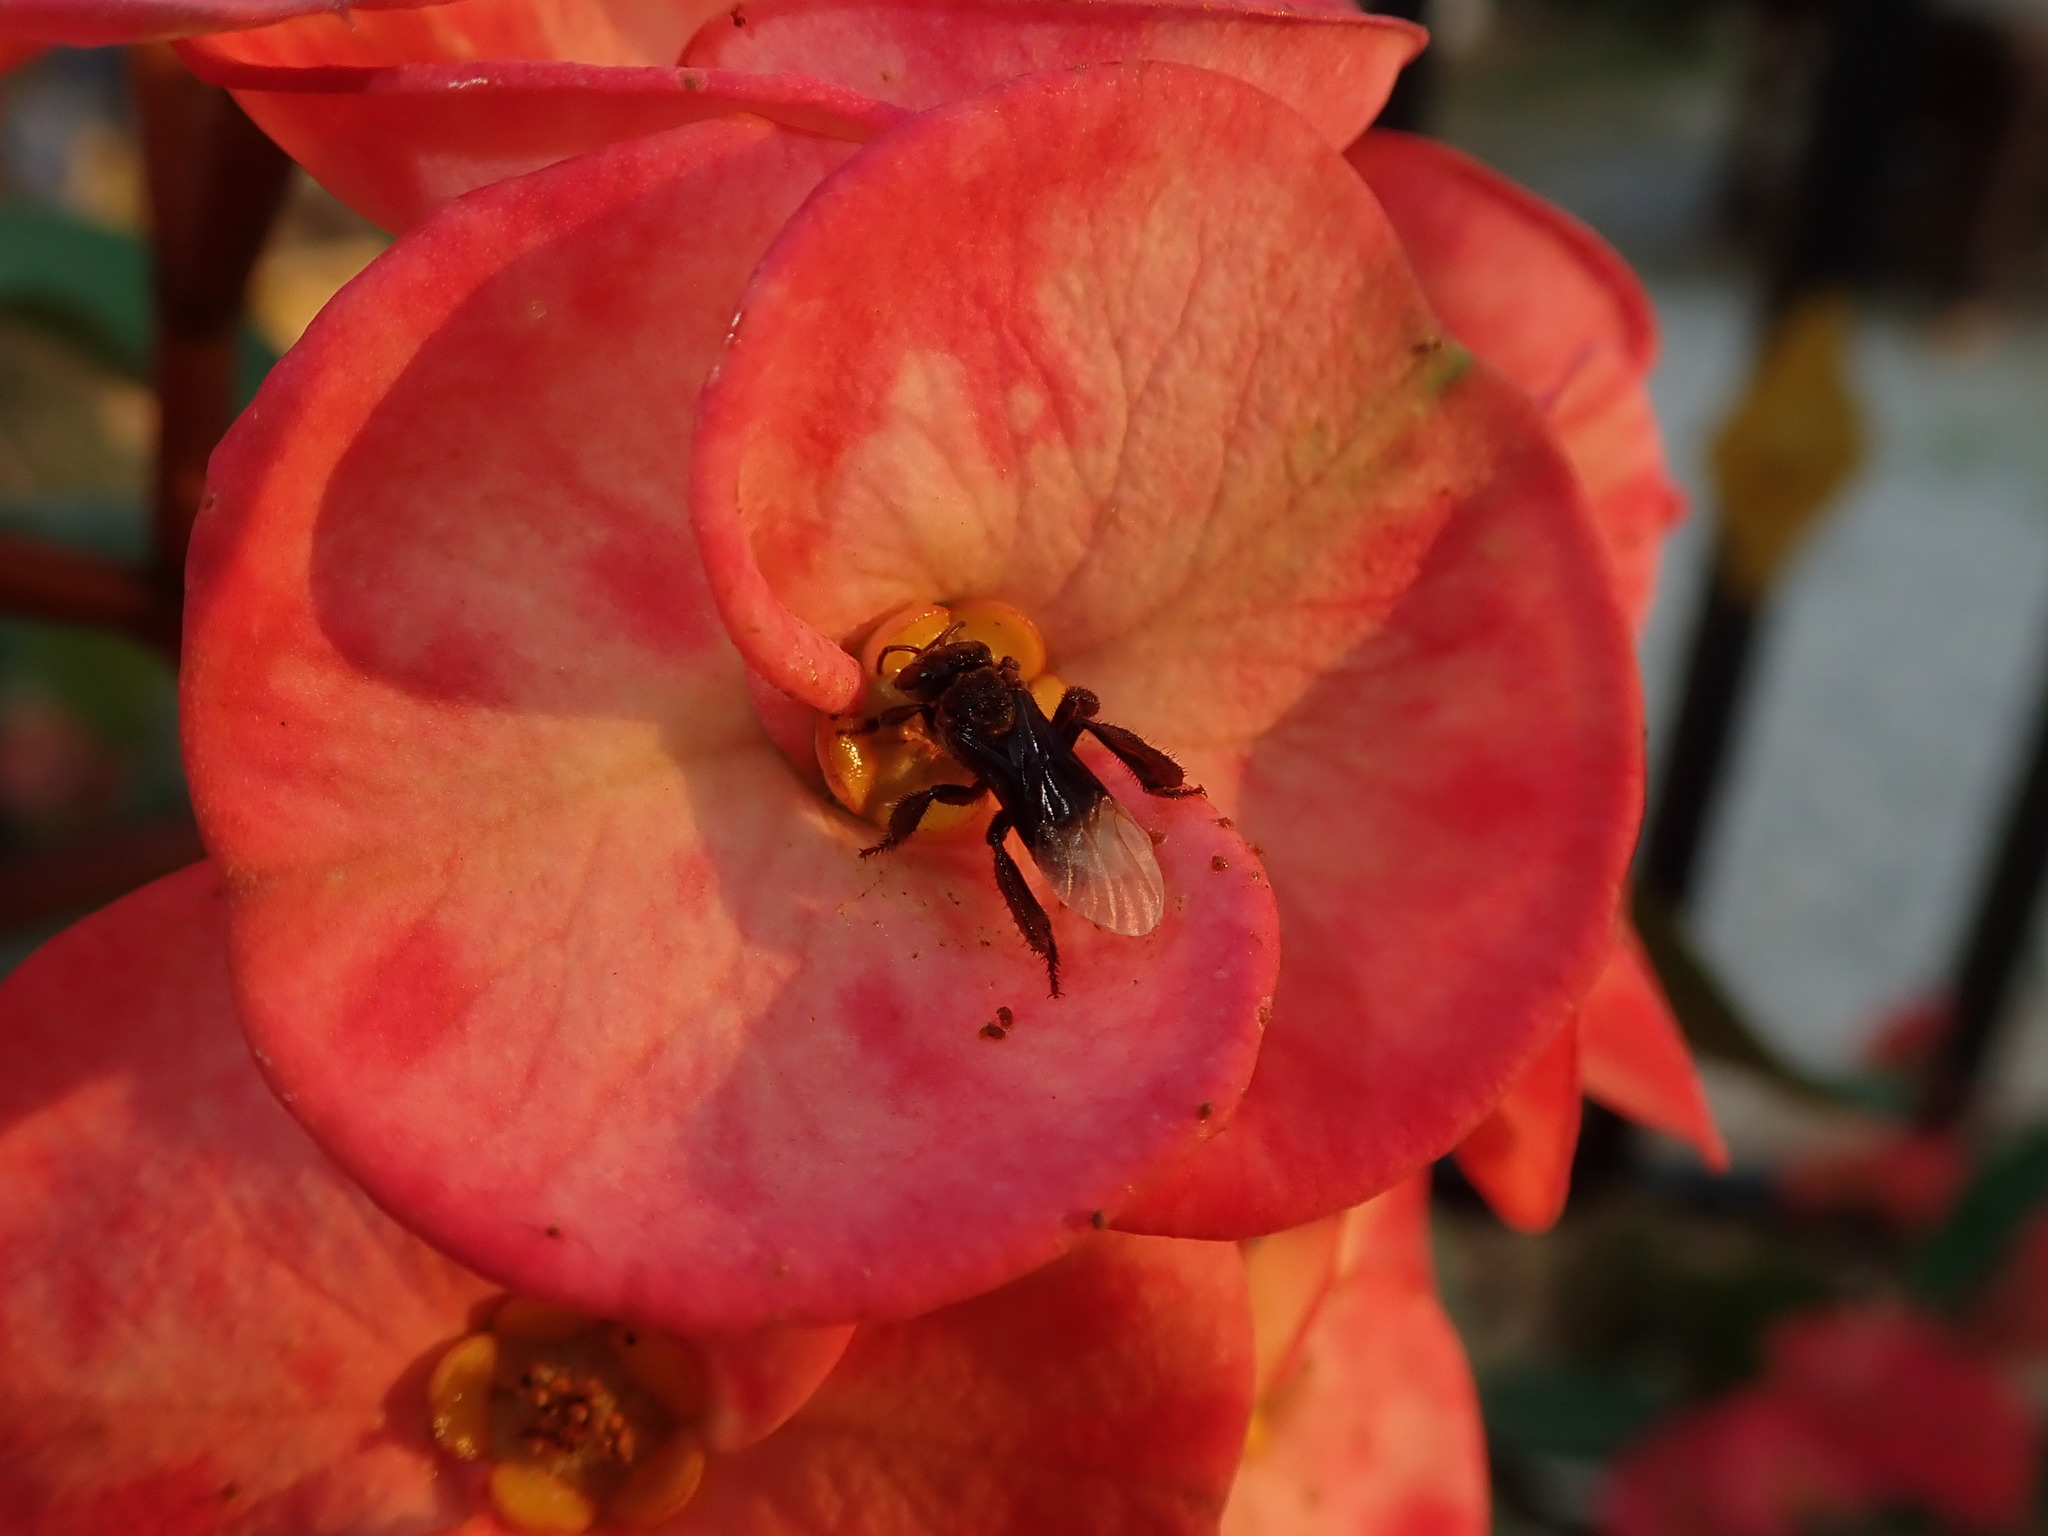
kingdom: Animalia
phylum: Arthropoda
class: Insecta
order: Hymenoptera
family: Apidae
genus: Homotrigona
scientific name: Homotrigona apicalis
